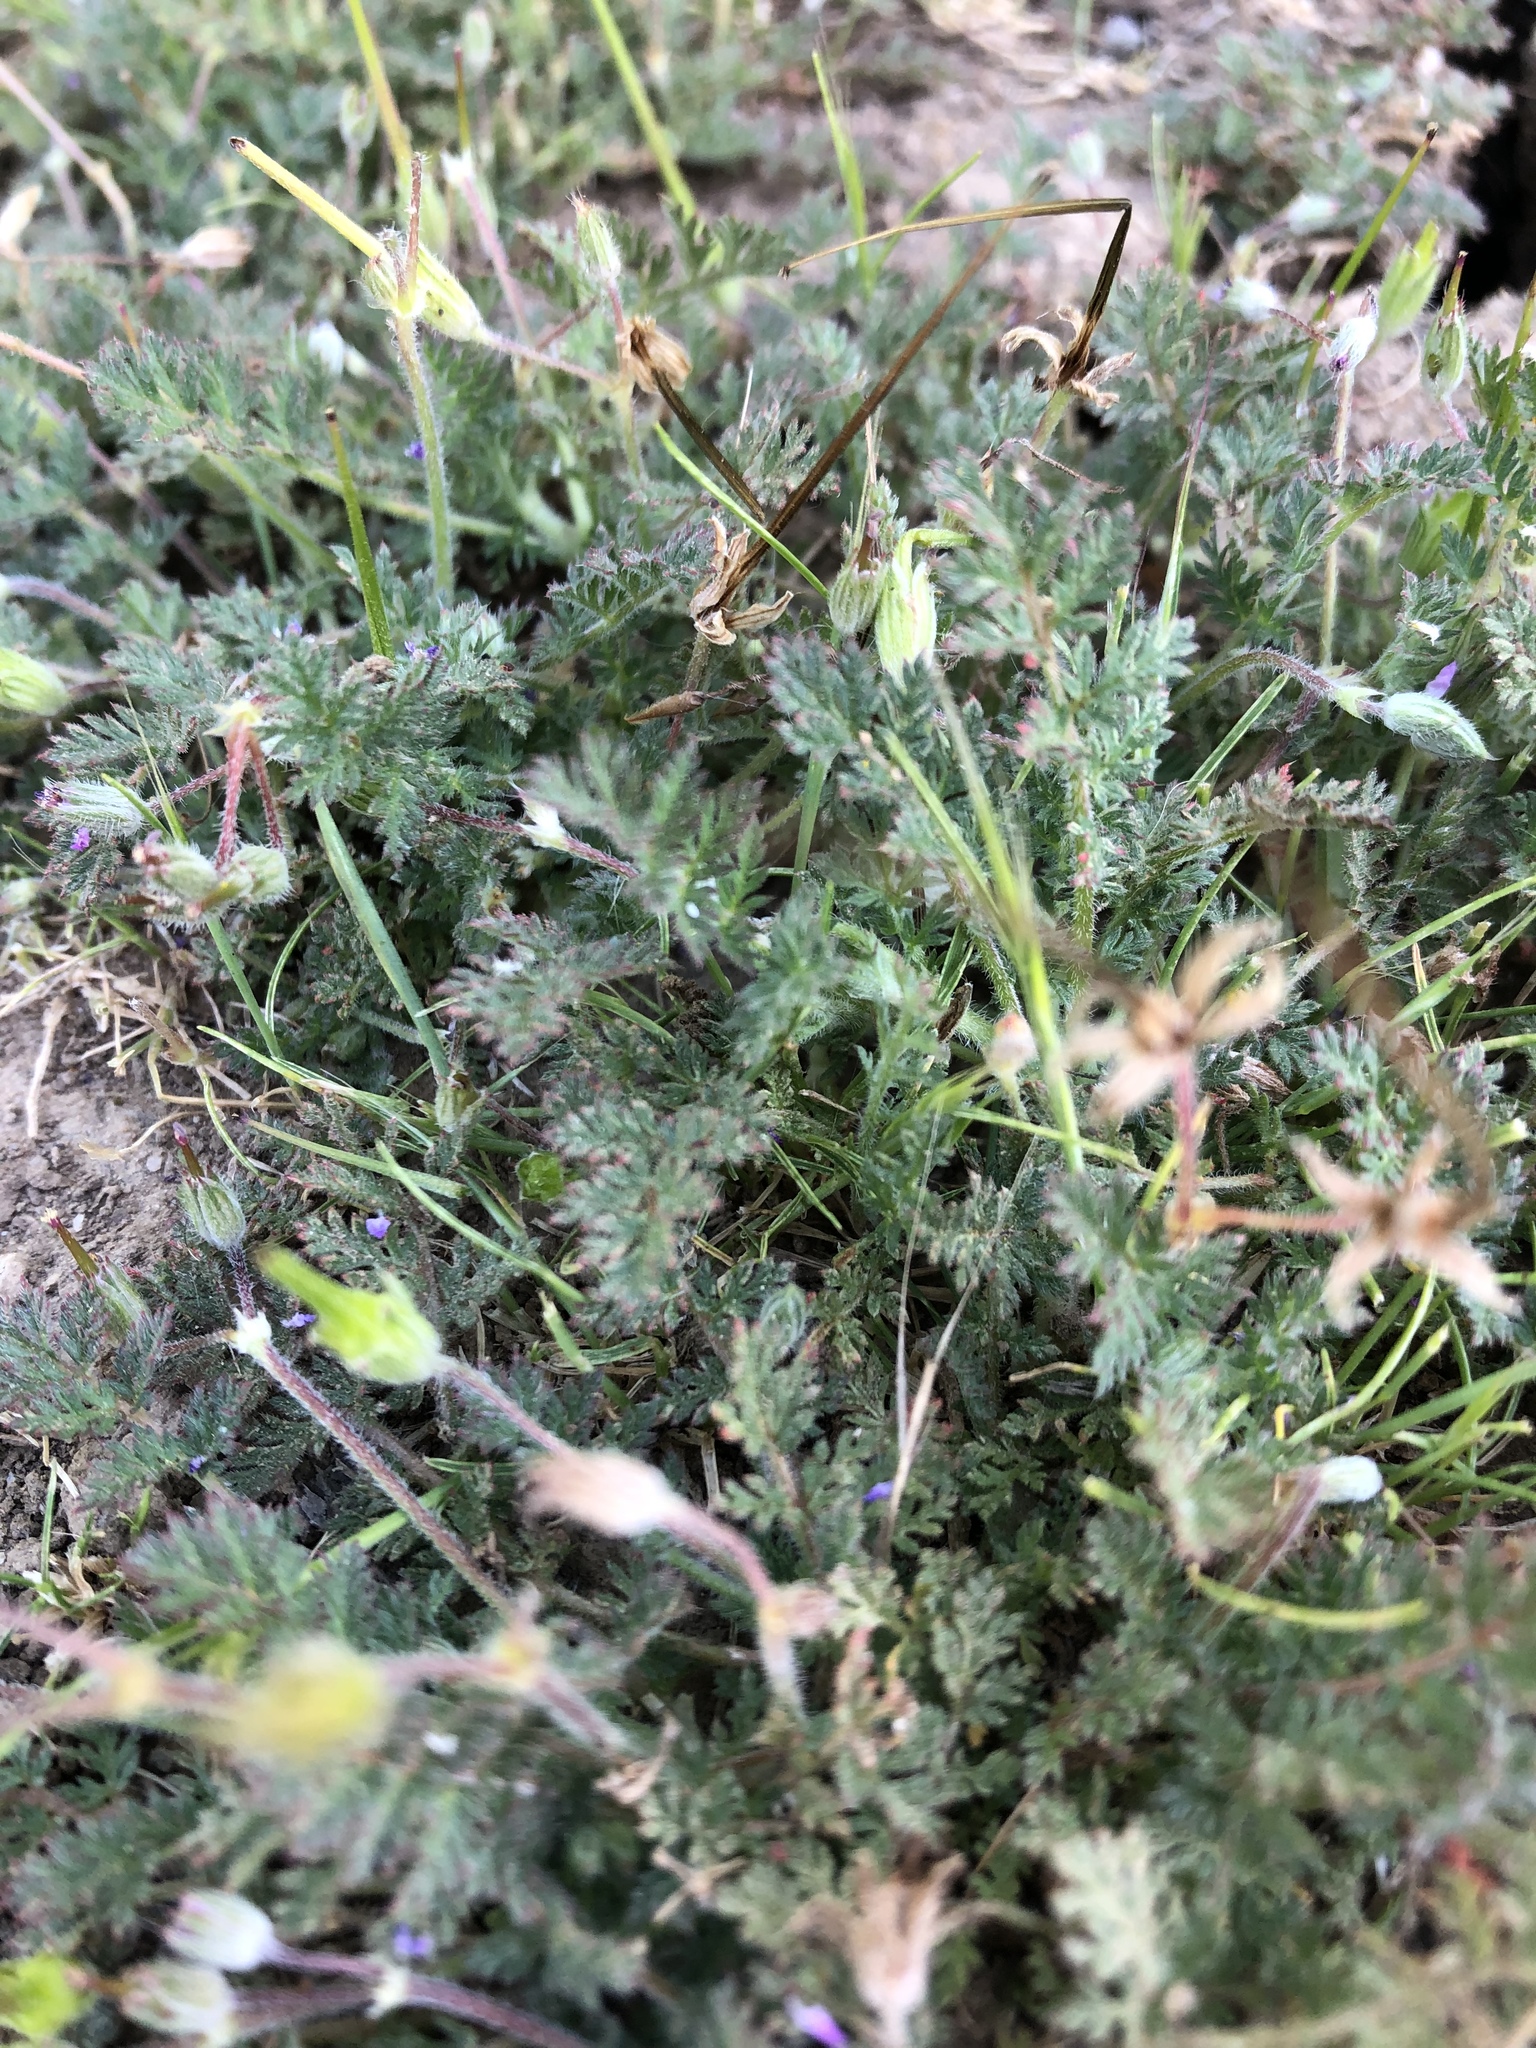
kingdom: Plantae
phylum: Tracheophyta
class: Magnoliopsida
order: Geraniales
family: Geraniaceae
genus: Erodium
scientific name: Erodium cicutarium
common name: Common stork's-bill
